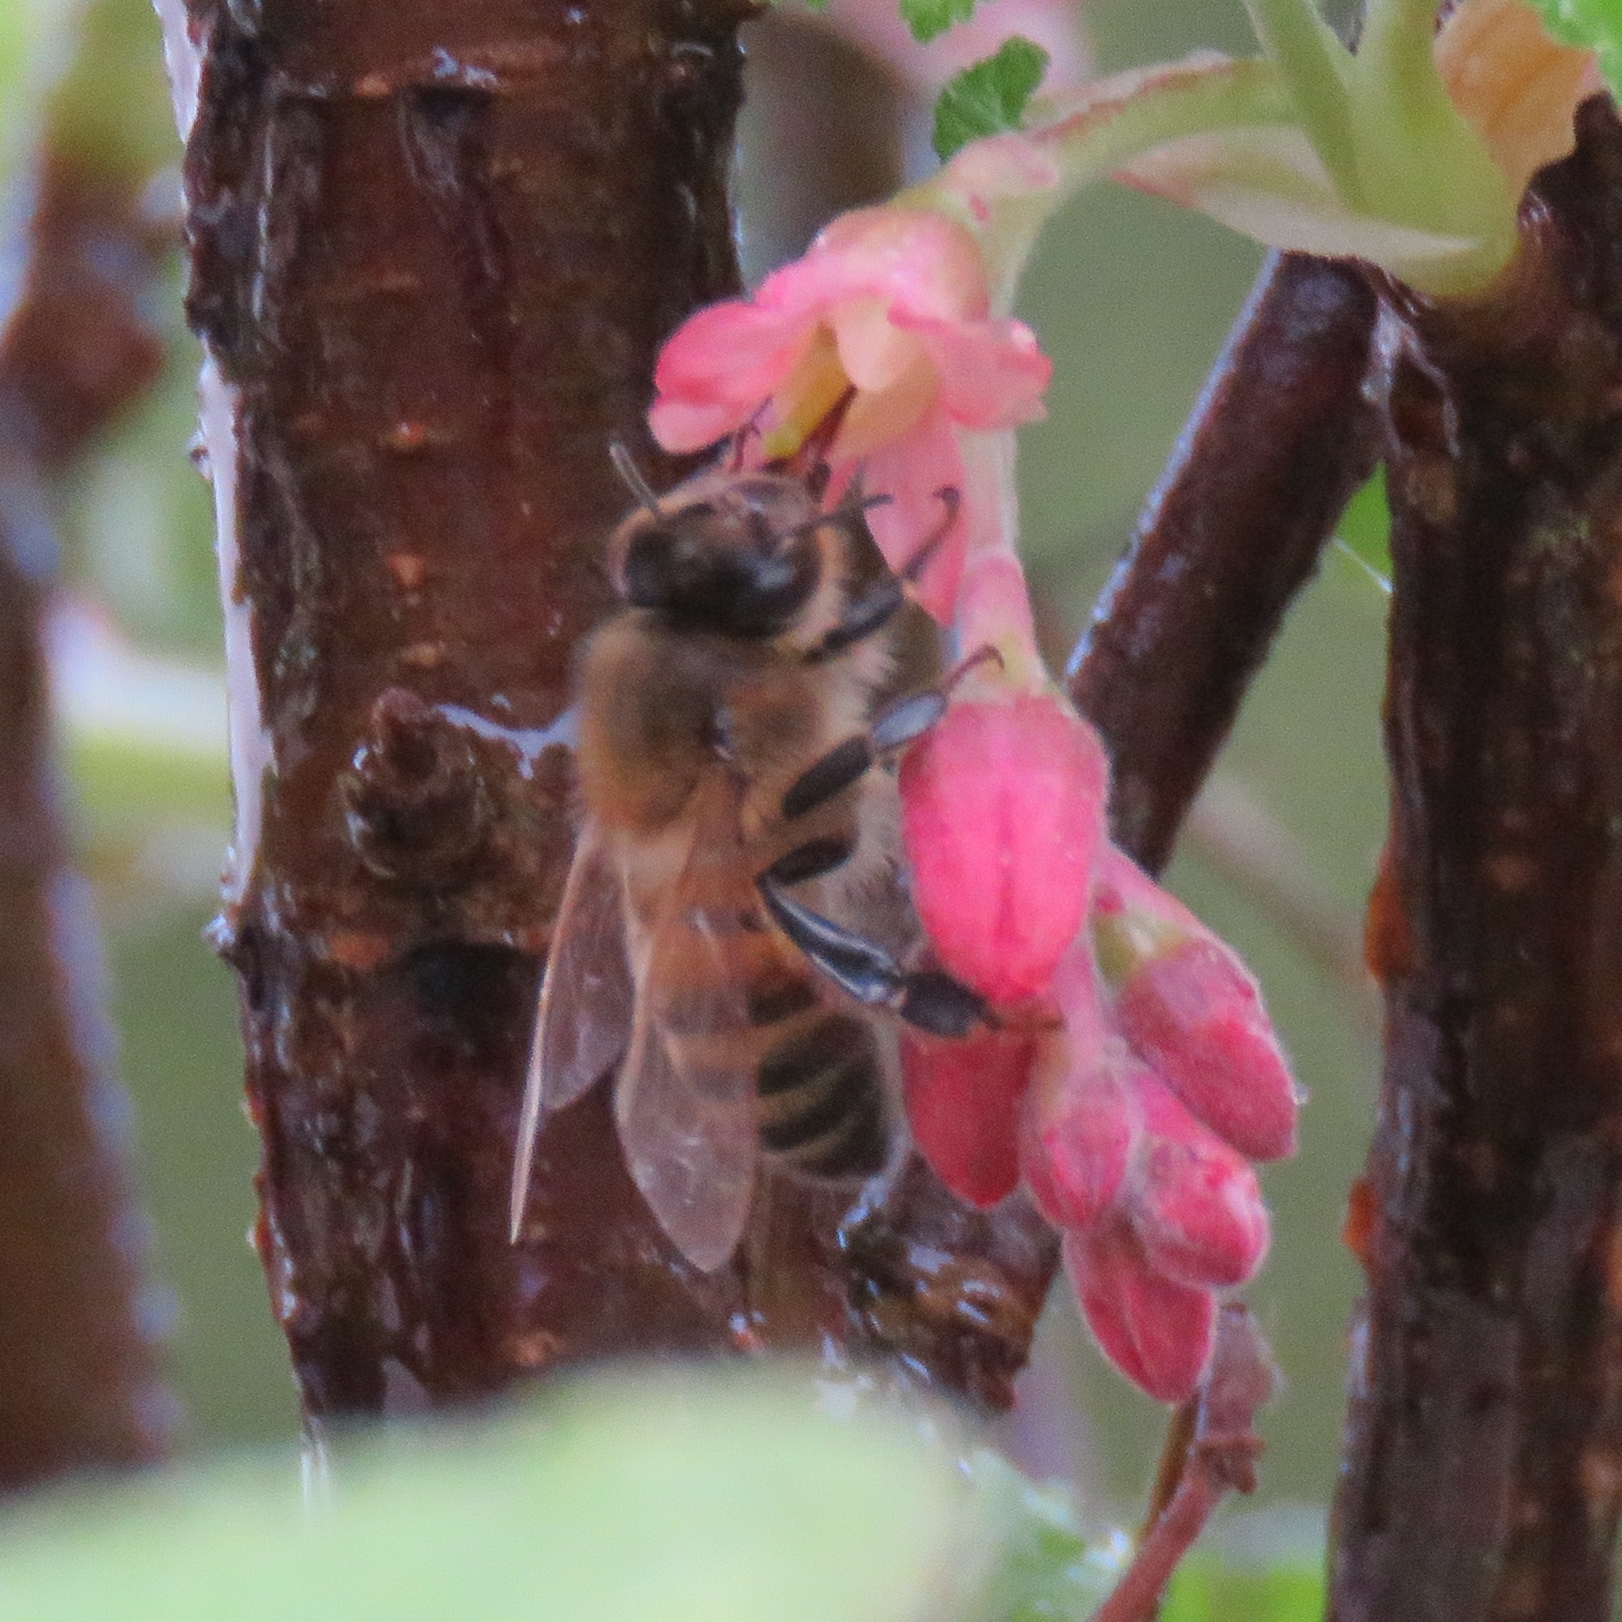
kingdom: Animalia
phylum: Arthropoda
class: Insecta
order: Hymenoptera
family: Apidae
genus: Apis
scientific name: Apis mellifera
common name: Honey bee
